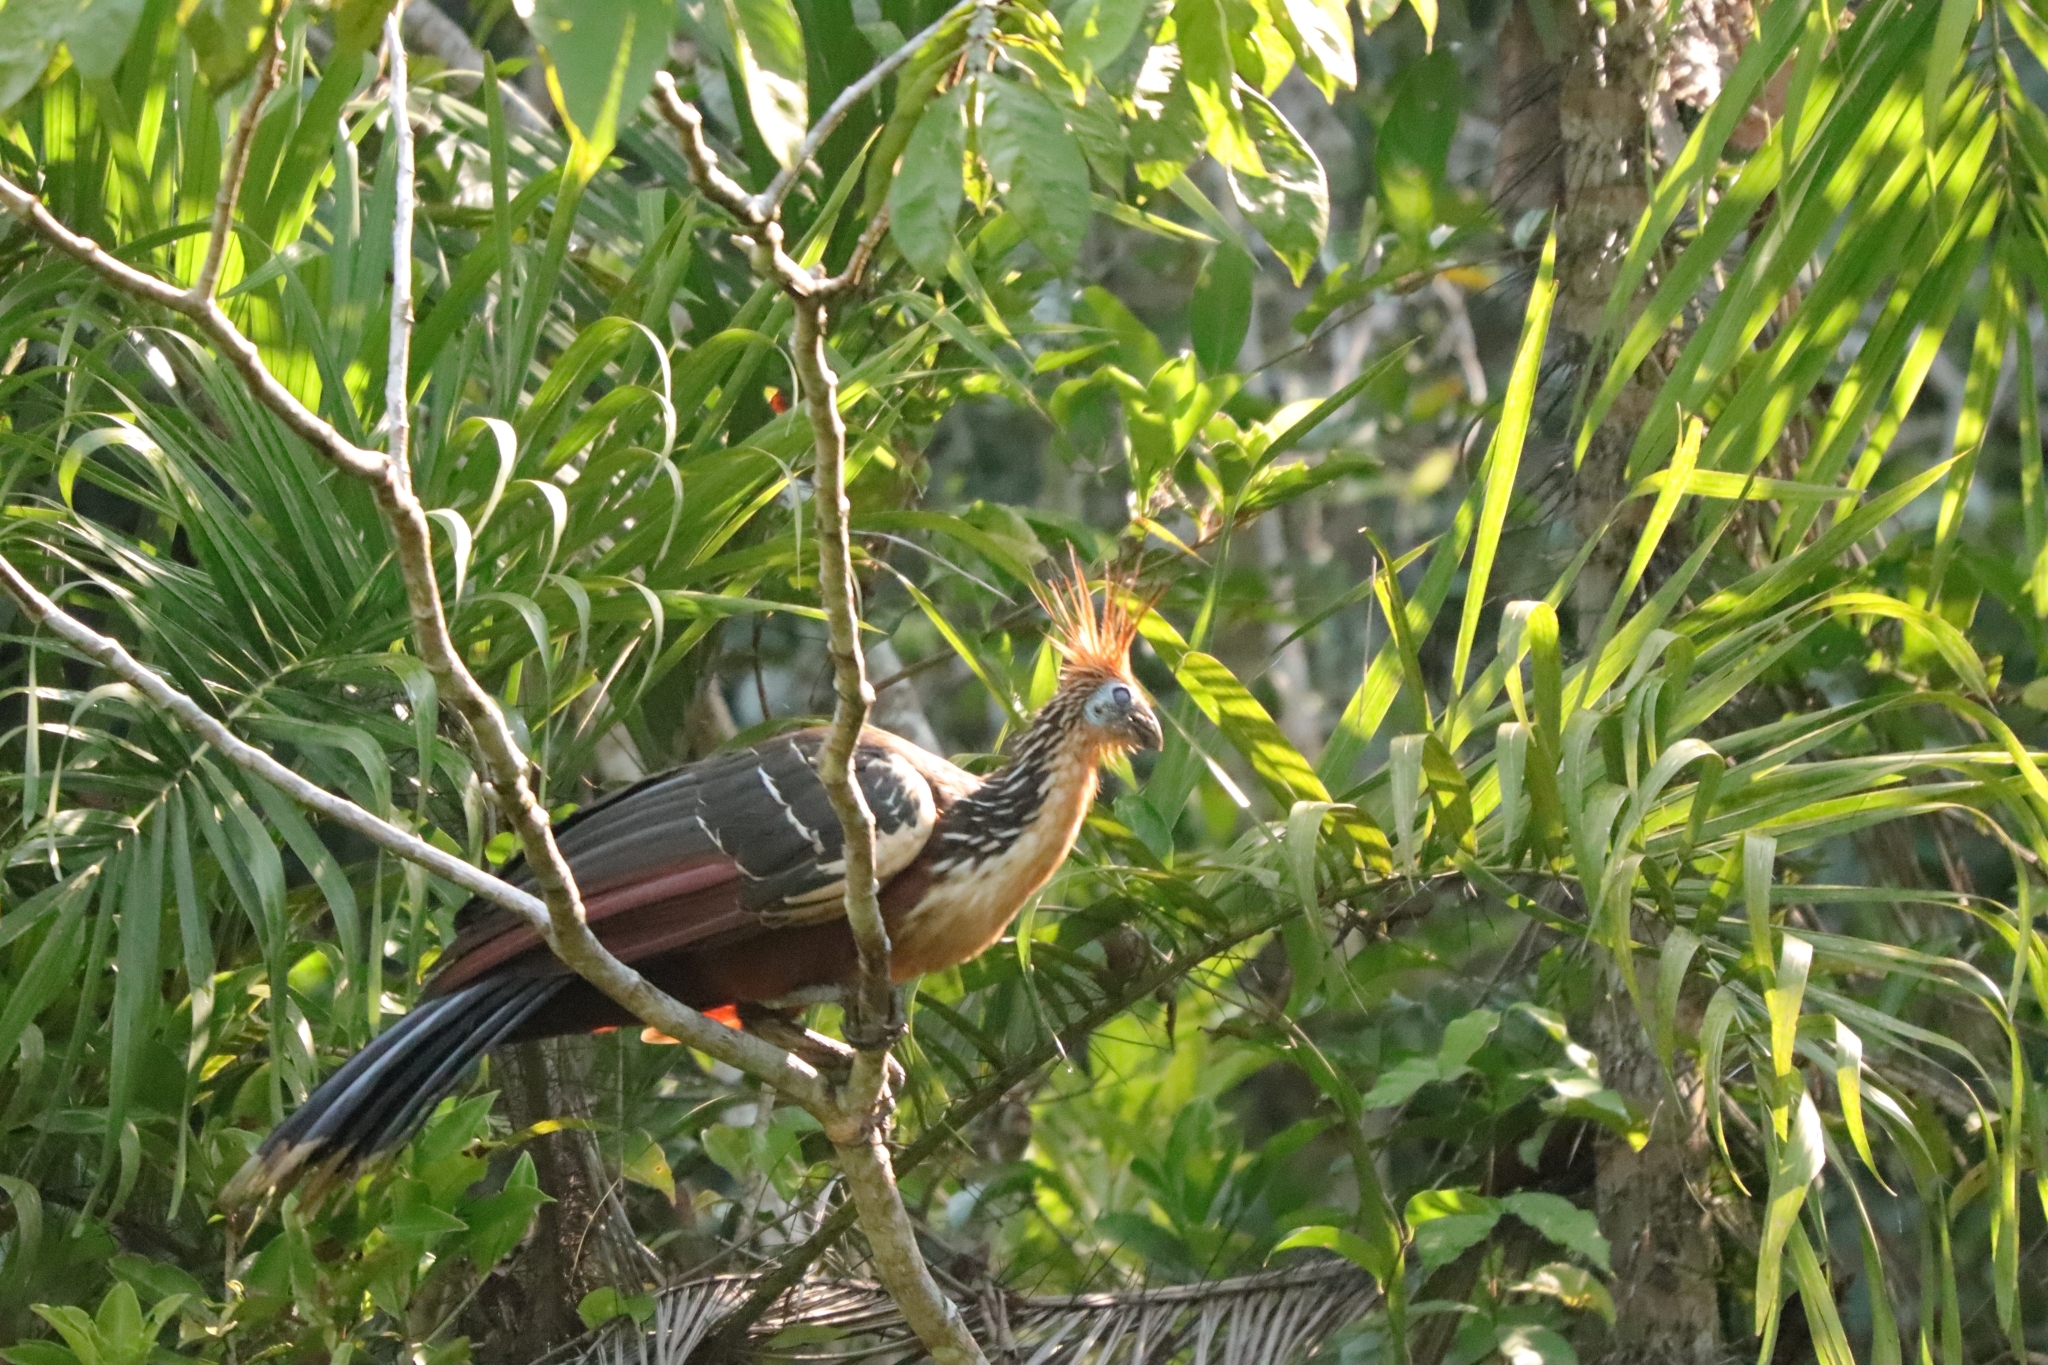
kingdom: Animalia
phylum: Chordata
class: Aves
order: Opisthocomiformes
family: Opisthocomidae
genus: Opisthocomus
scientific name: Opisthocomus hoazin
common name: Hoatzin
